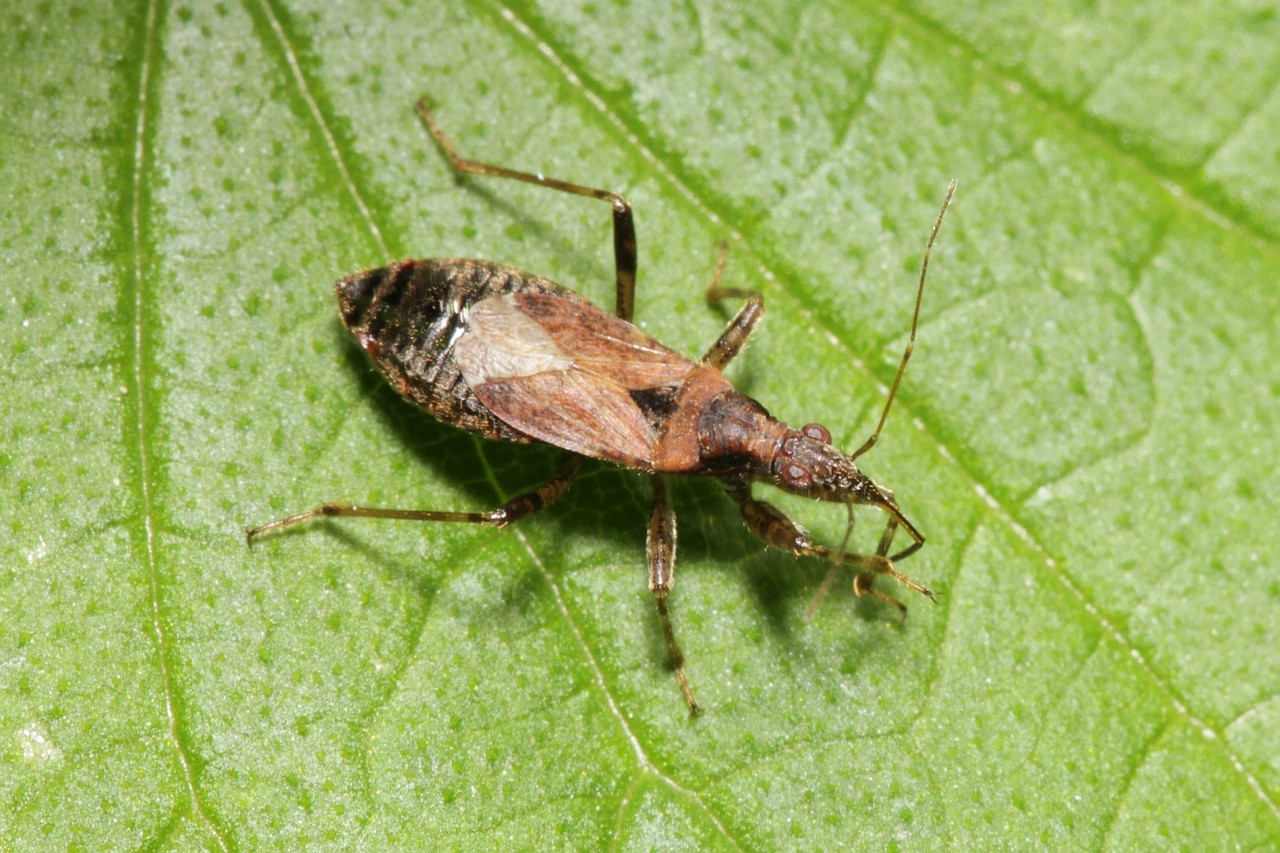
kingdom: Animalia
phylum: Arthropoda
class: Insecta
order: Hemiptera
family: Nabidae
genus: Himacerus
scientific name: Himacerus mirmicoides
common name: Ant damsel bug
